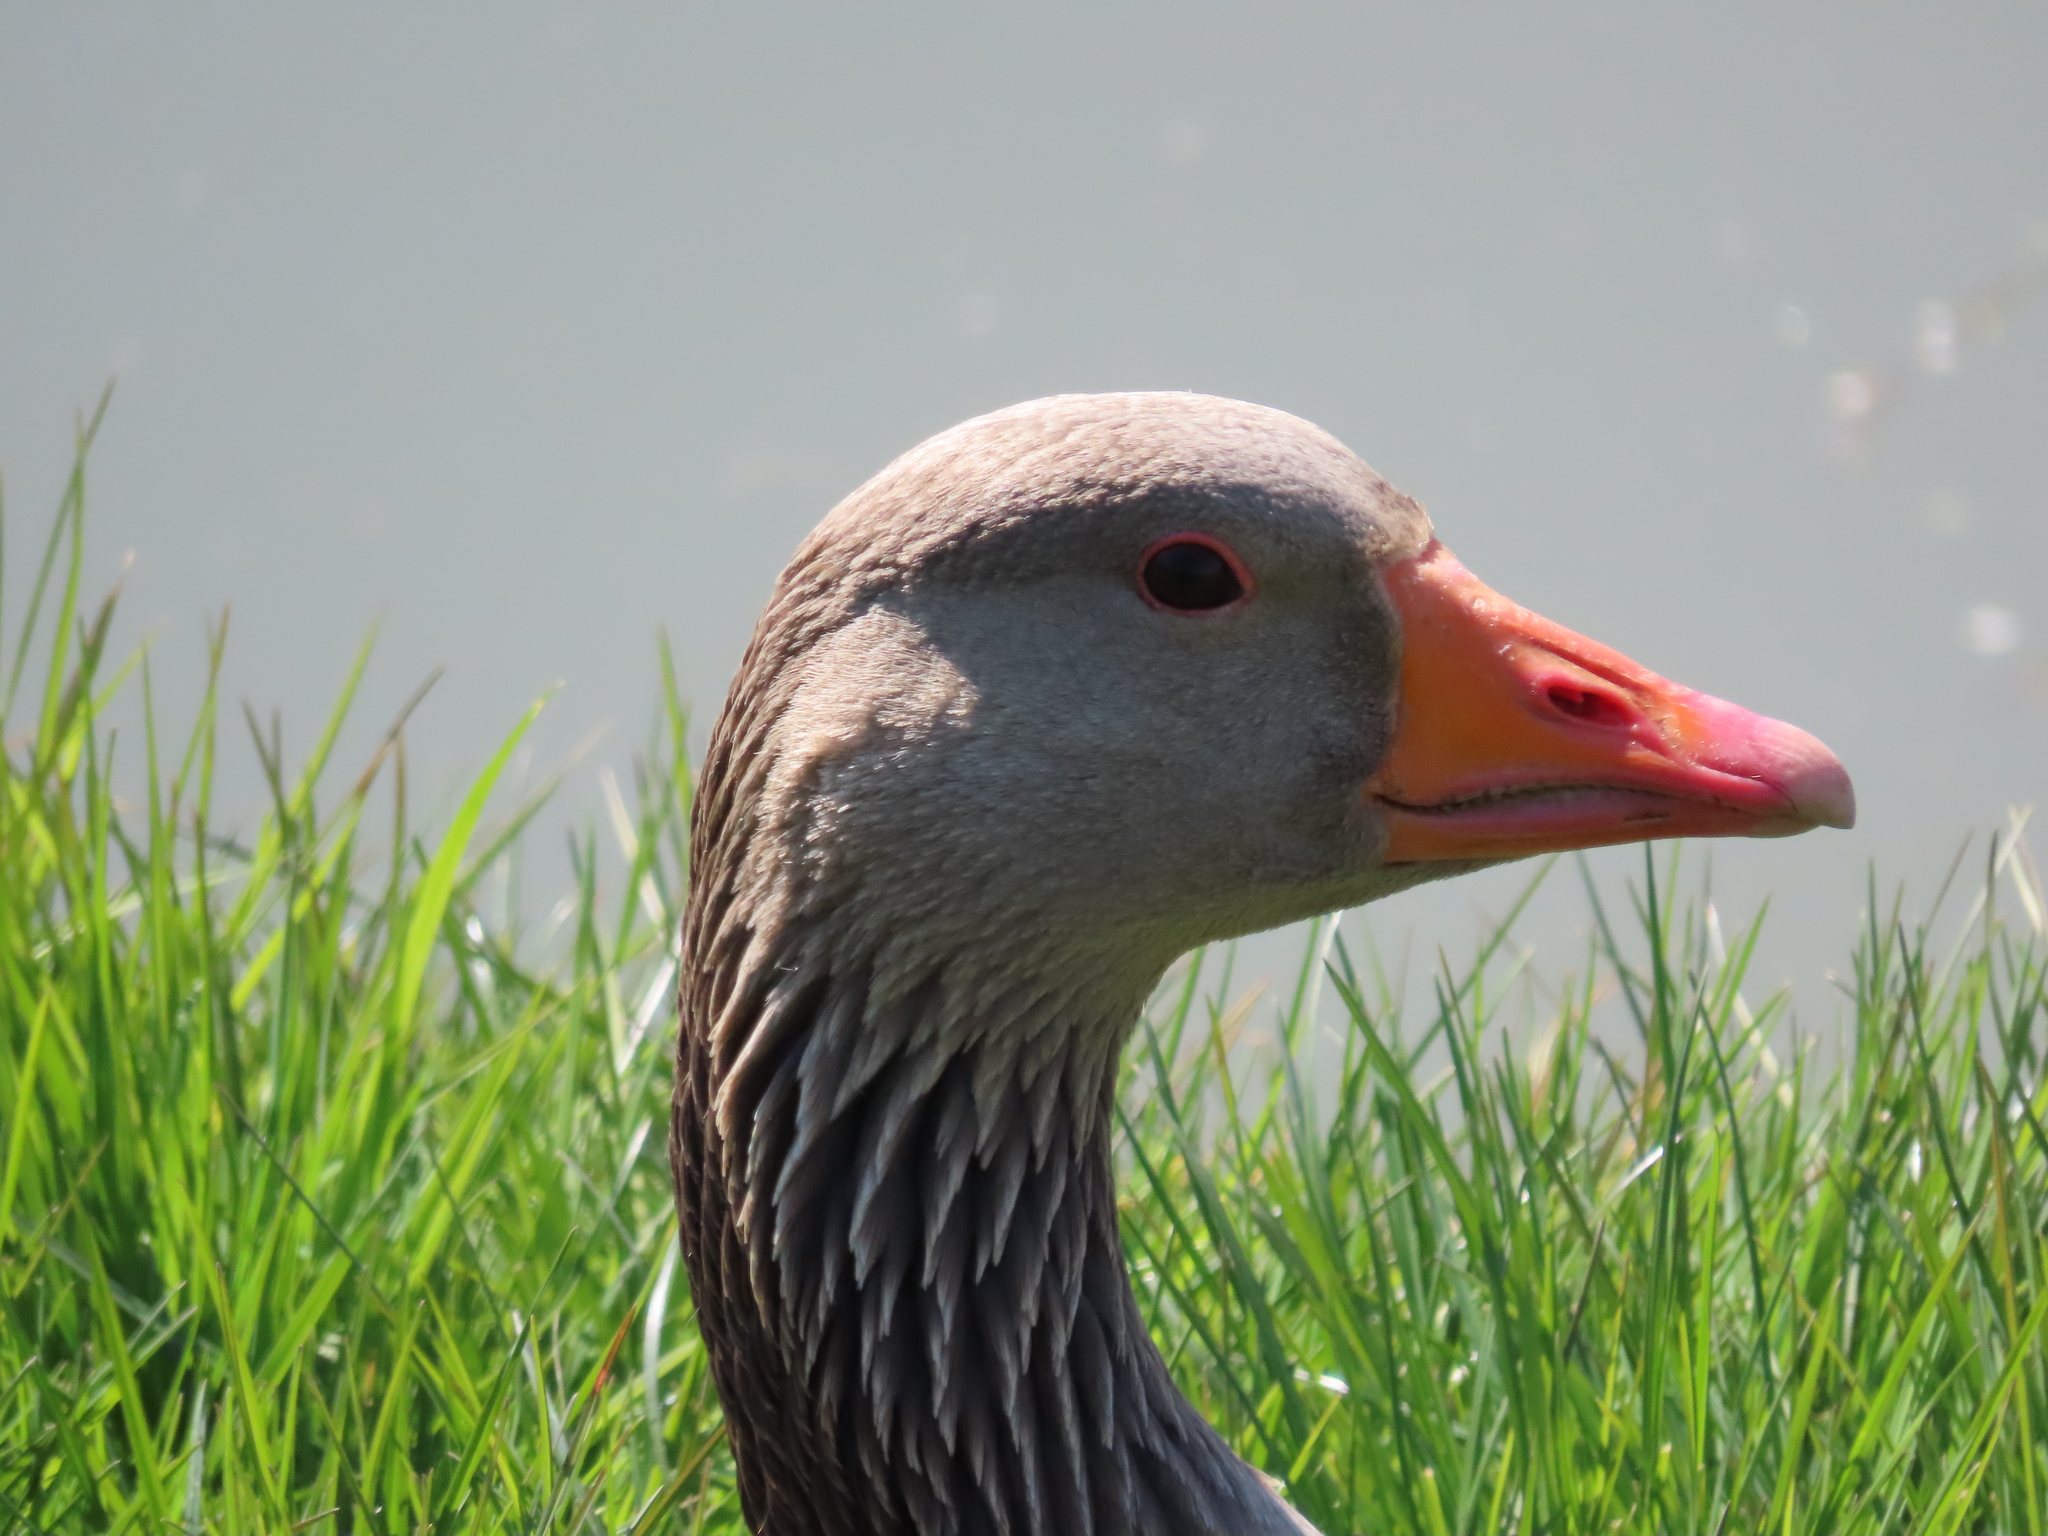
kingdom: Animalia
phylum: Chordata
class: Aves
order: Anseriformes
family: Anatidae
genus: Anser
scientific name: Anser anser
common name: Greylag goose
